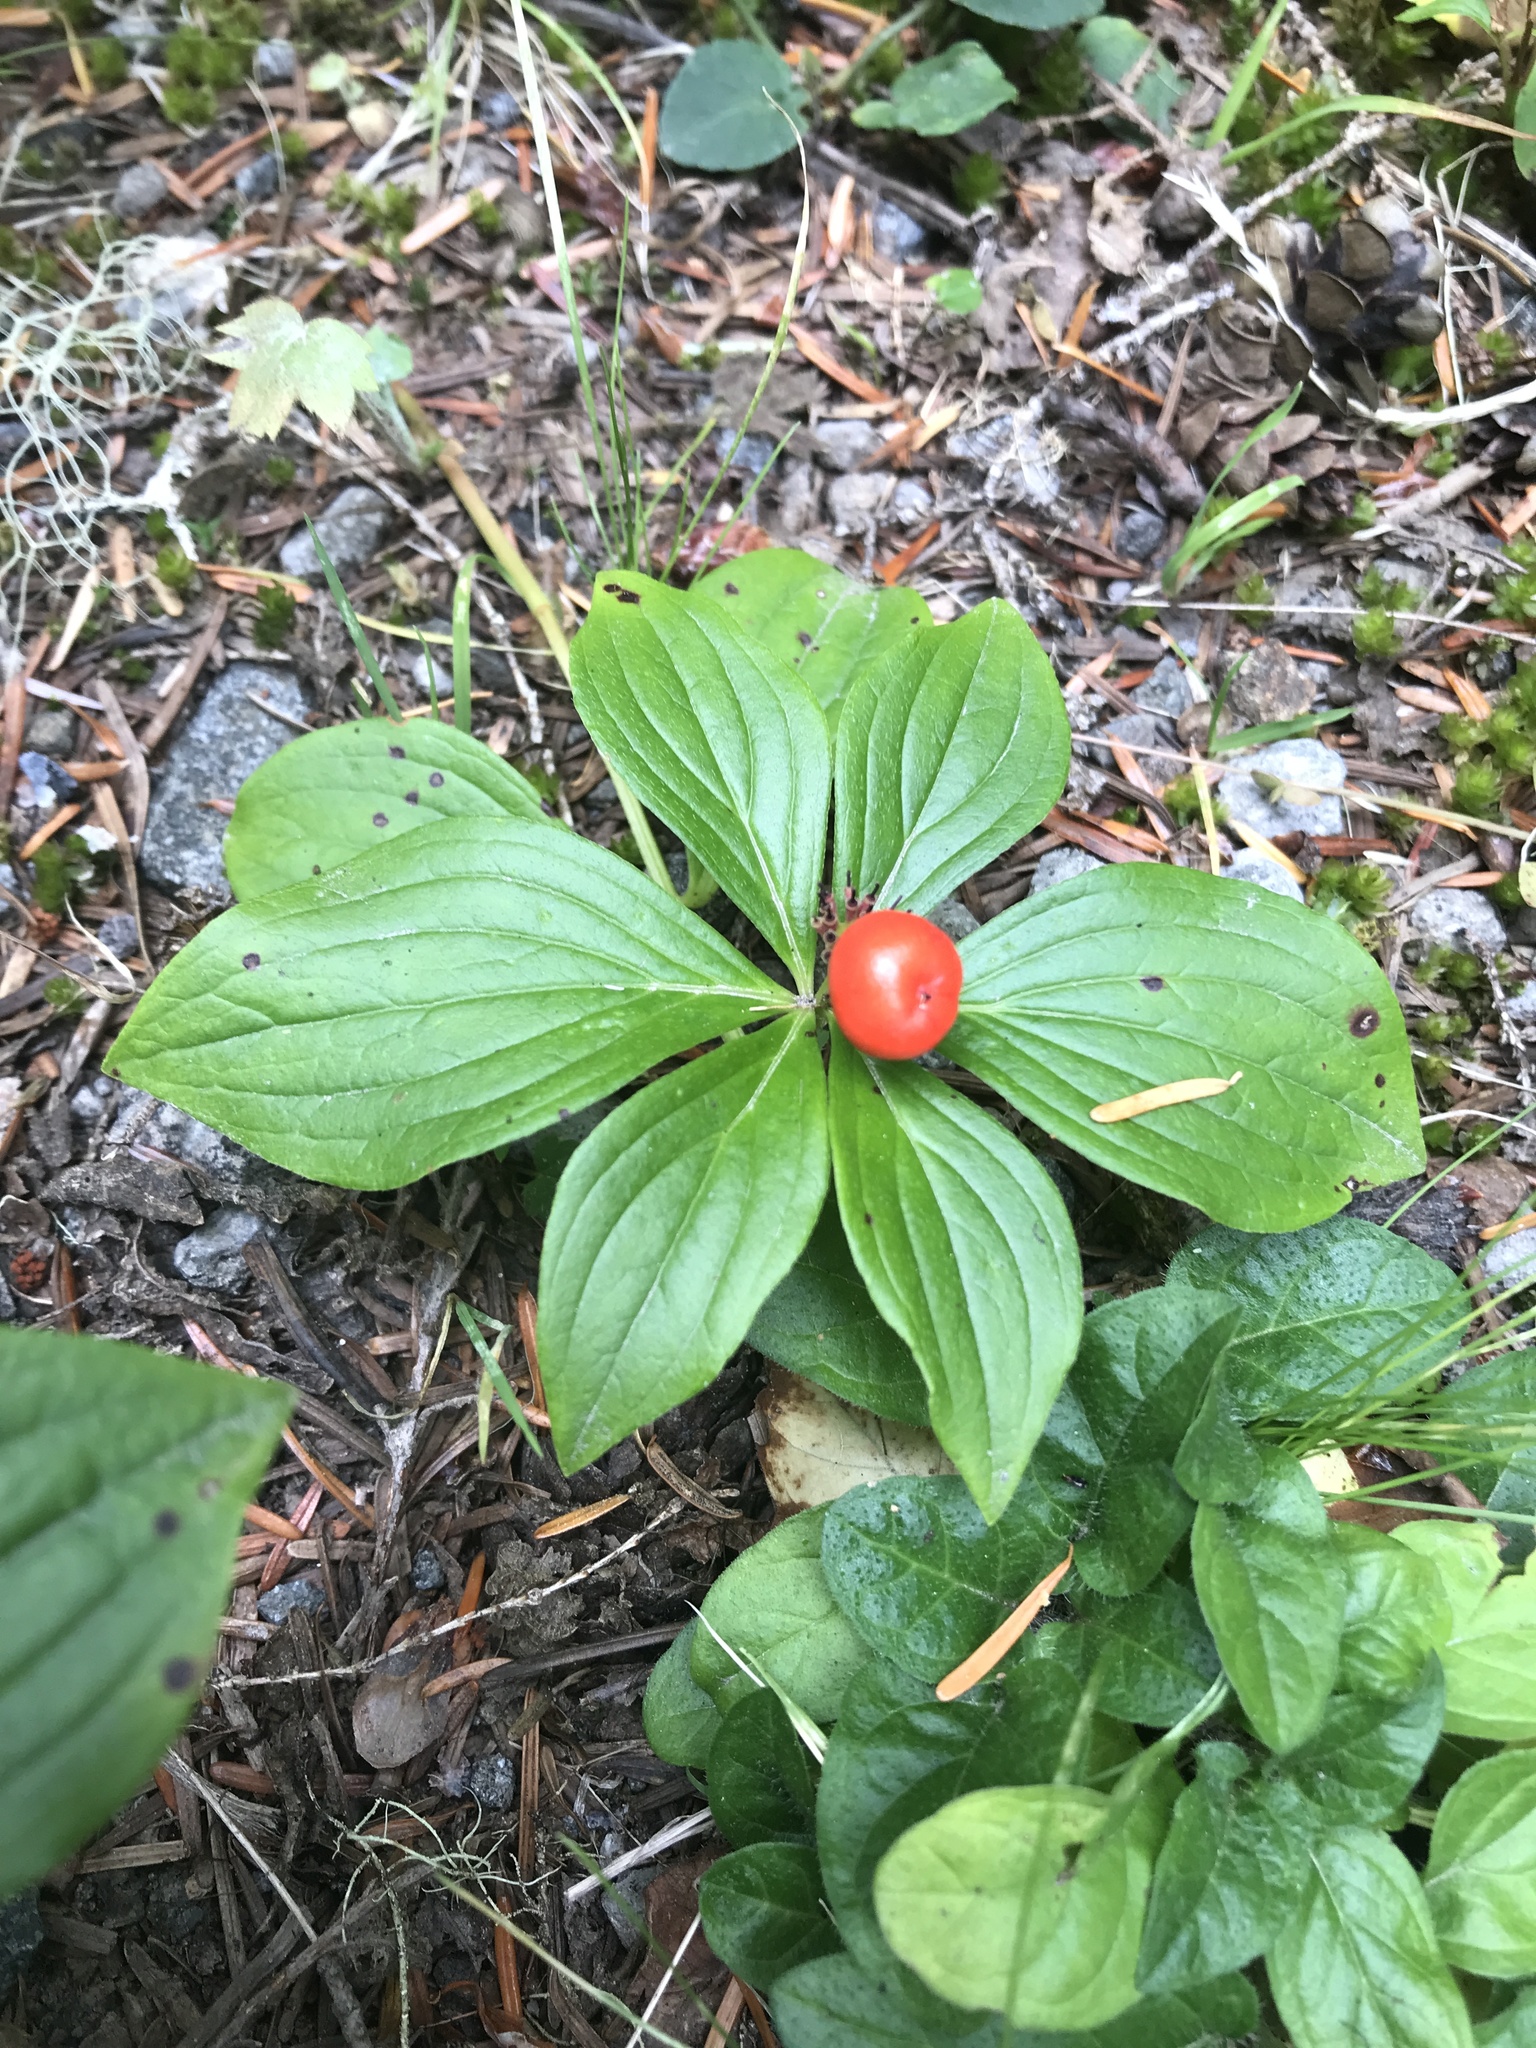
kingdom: Plantae
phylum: Tracheophyta
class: Magnoliopsida
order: Cornales
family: Cornaceae
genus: Cornus
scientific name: Cornus unalaschkensis
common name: Alaska bunchberry
